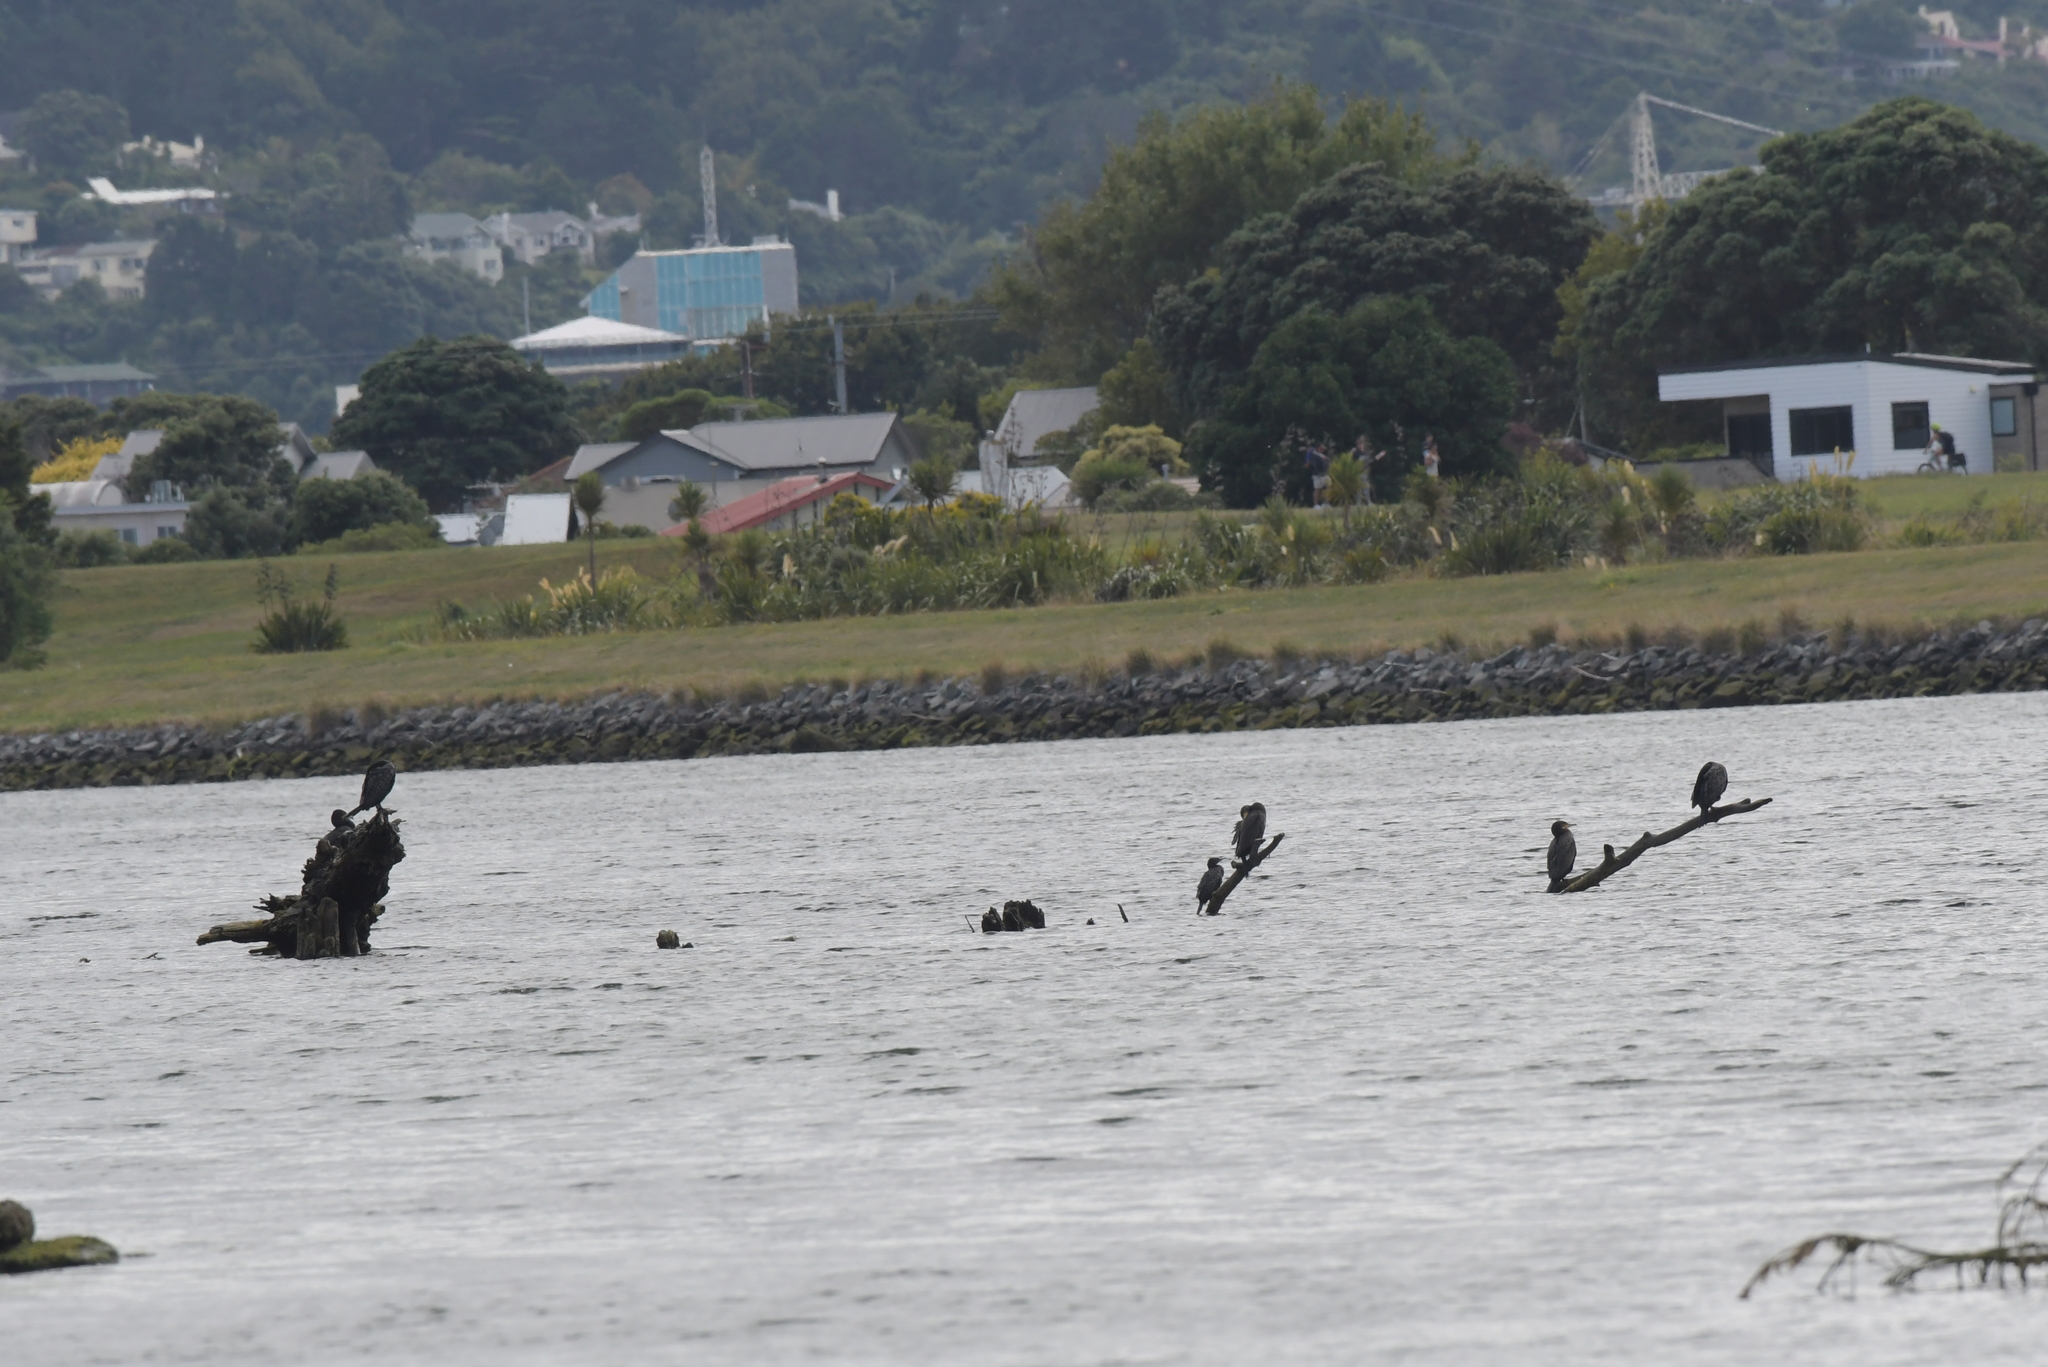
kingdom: Animalia
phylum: Chordata
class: Aves
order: Suliformes
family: Phalacrocoracidae
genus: Phalacrocorax
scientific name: Phalacrocorax carbo
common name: Great cormorant
